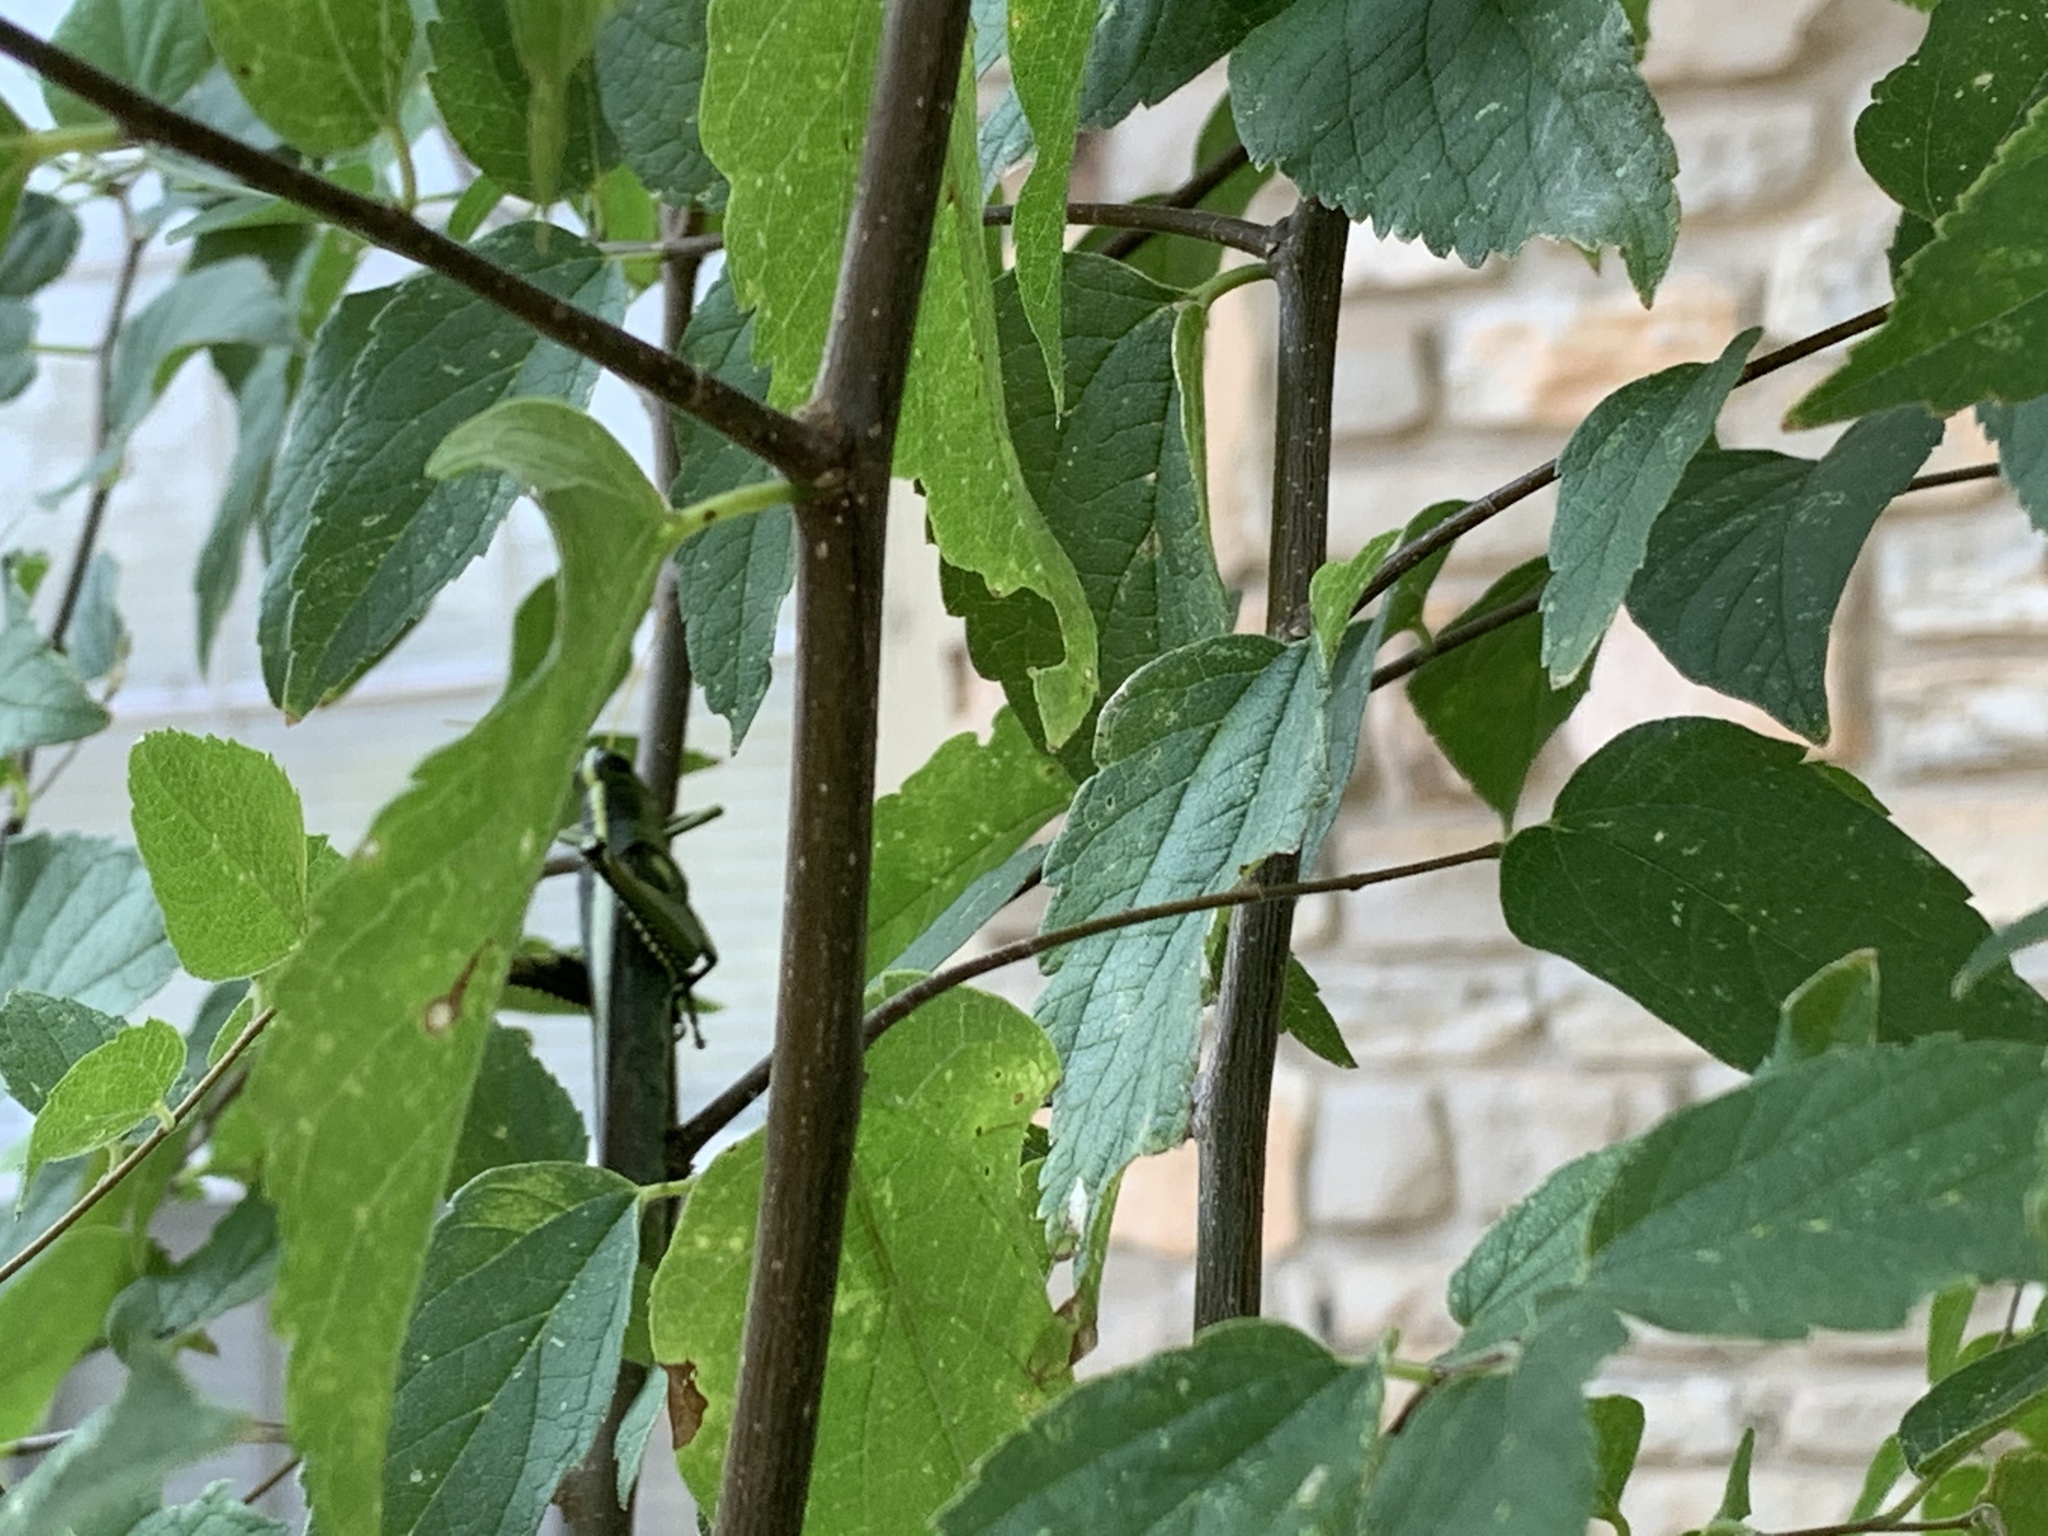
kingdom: Animalia
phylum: Arthropoda
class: Insecta
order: Orthoptera
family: Acrididae
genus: Schistocerca
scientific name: Schistocerca obscura
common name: Obscure bird grasshopper
